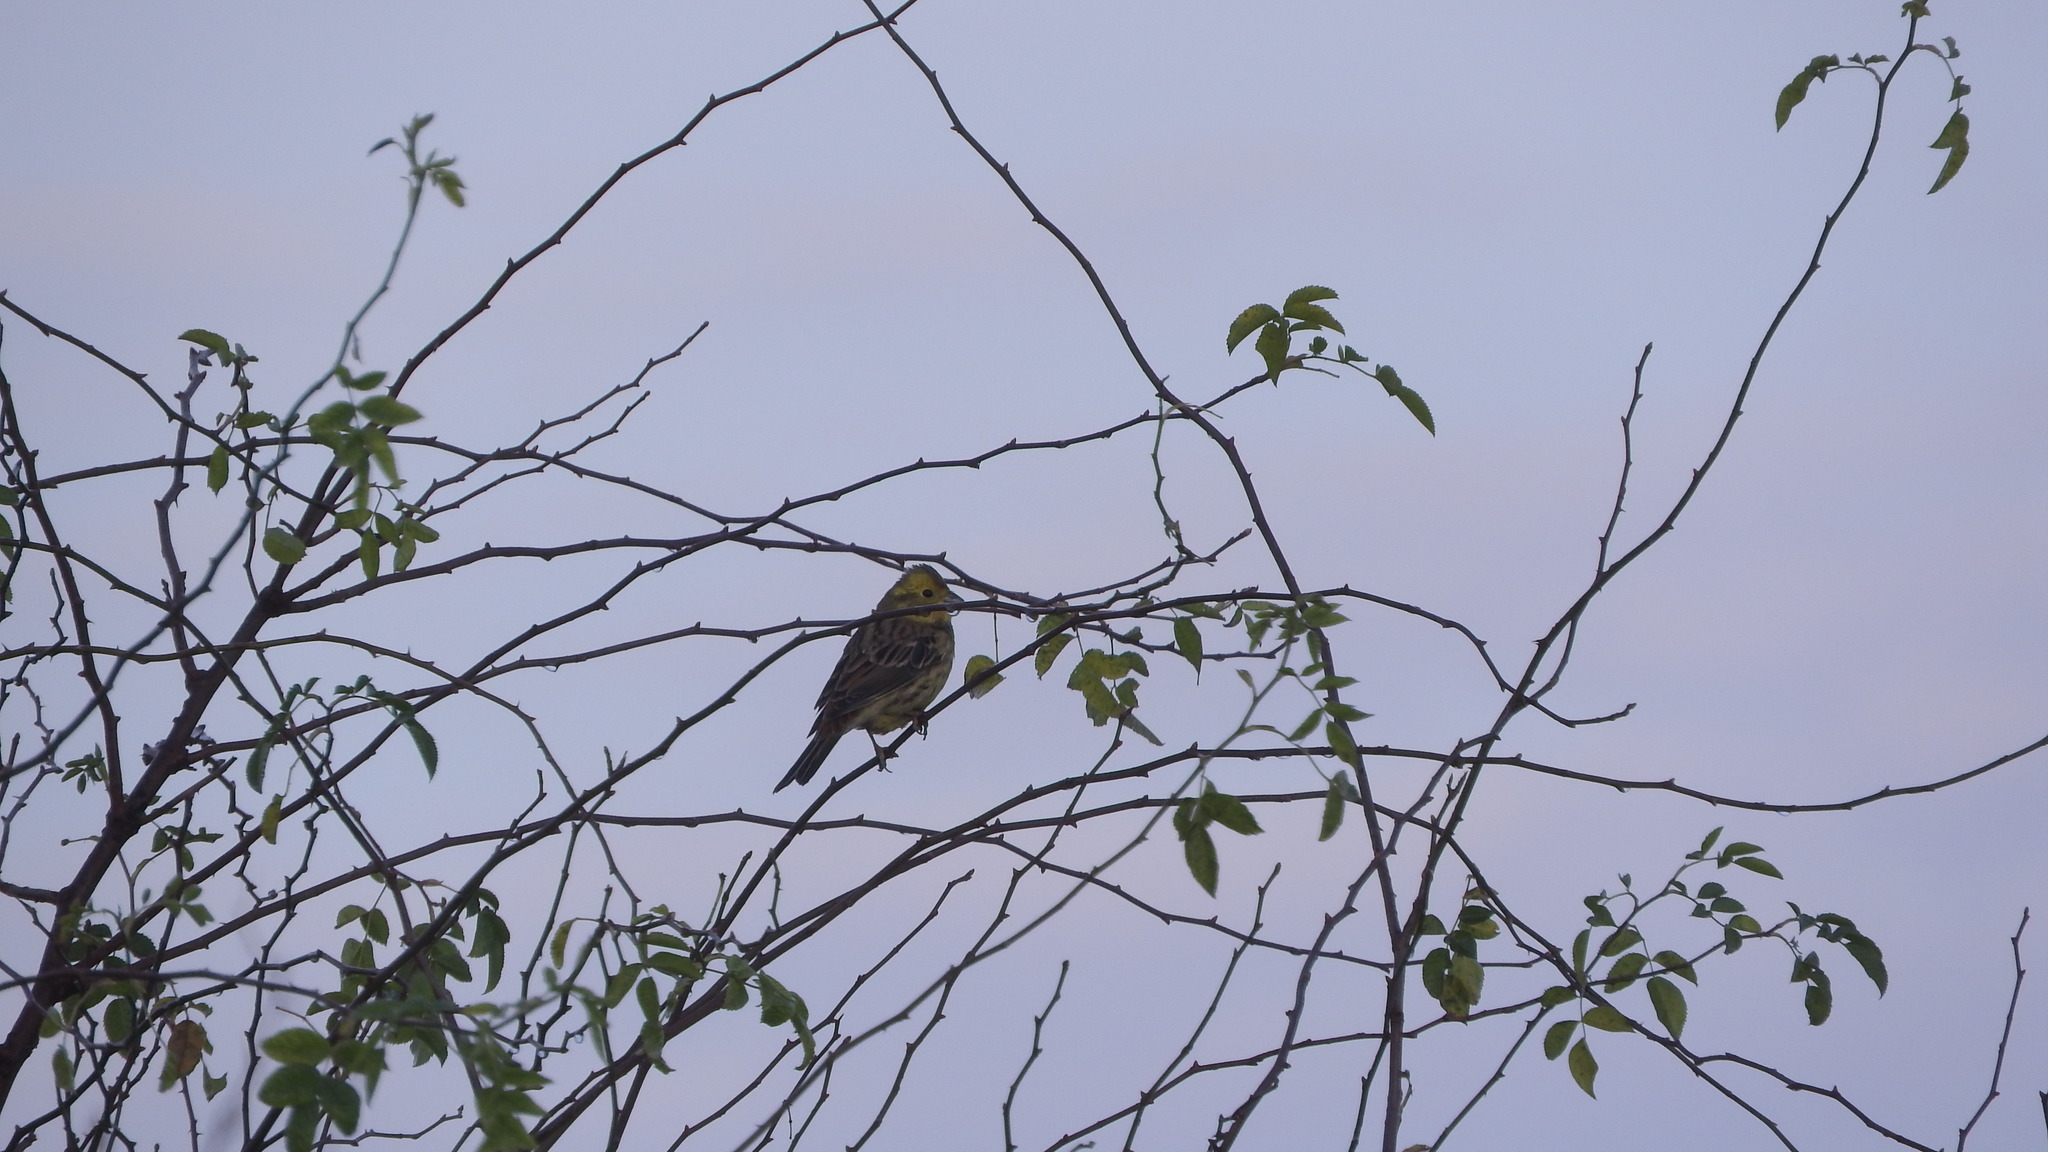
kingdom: Animalia
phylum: Chordata
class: Aves
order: Passeriformes
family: Emberizidae
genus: Emberiza
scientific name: Emberiza citrinella
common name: Yellowhammer
